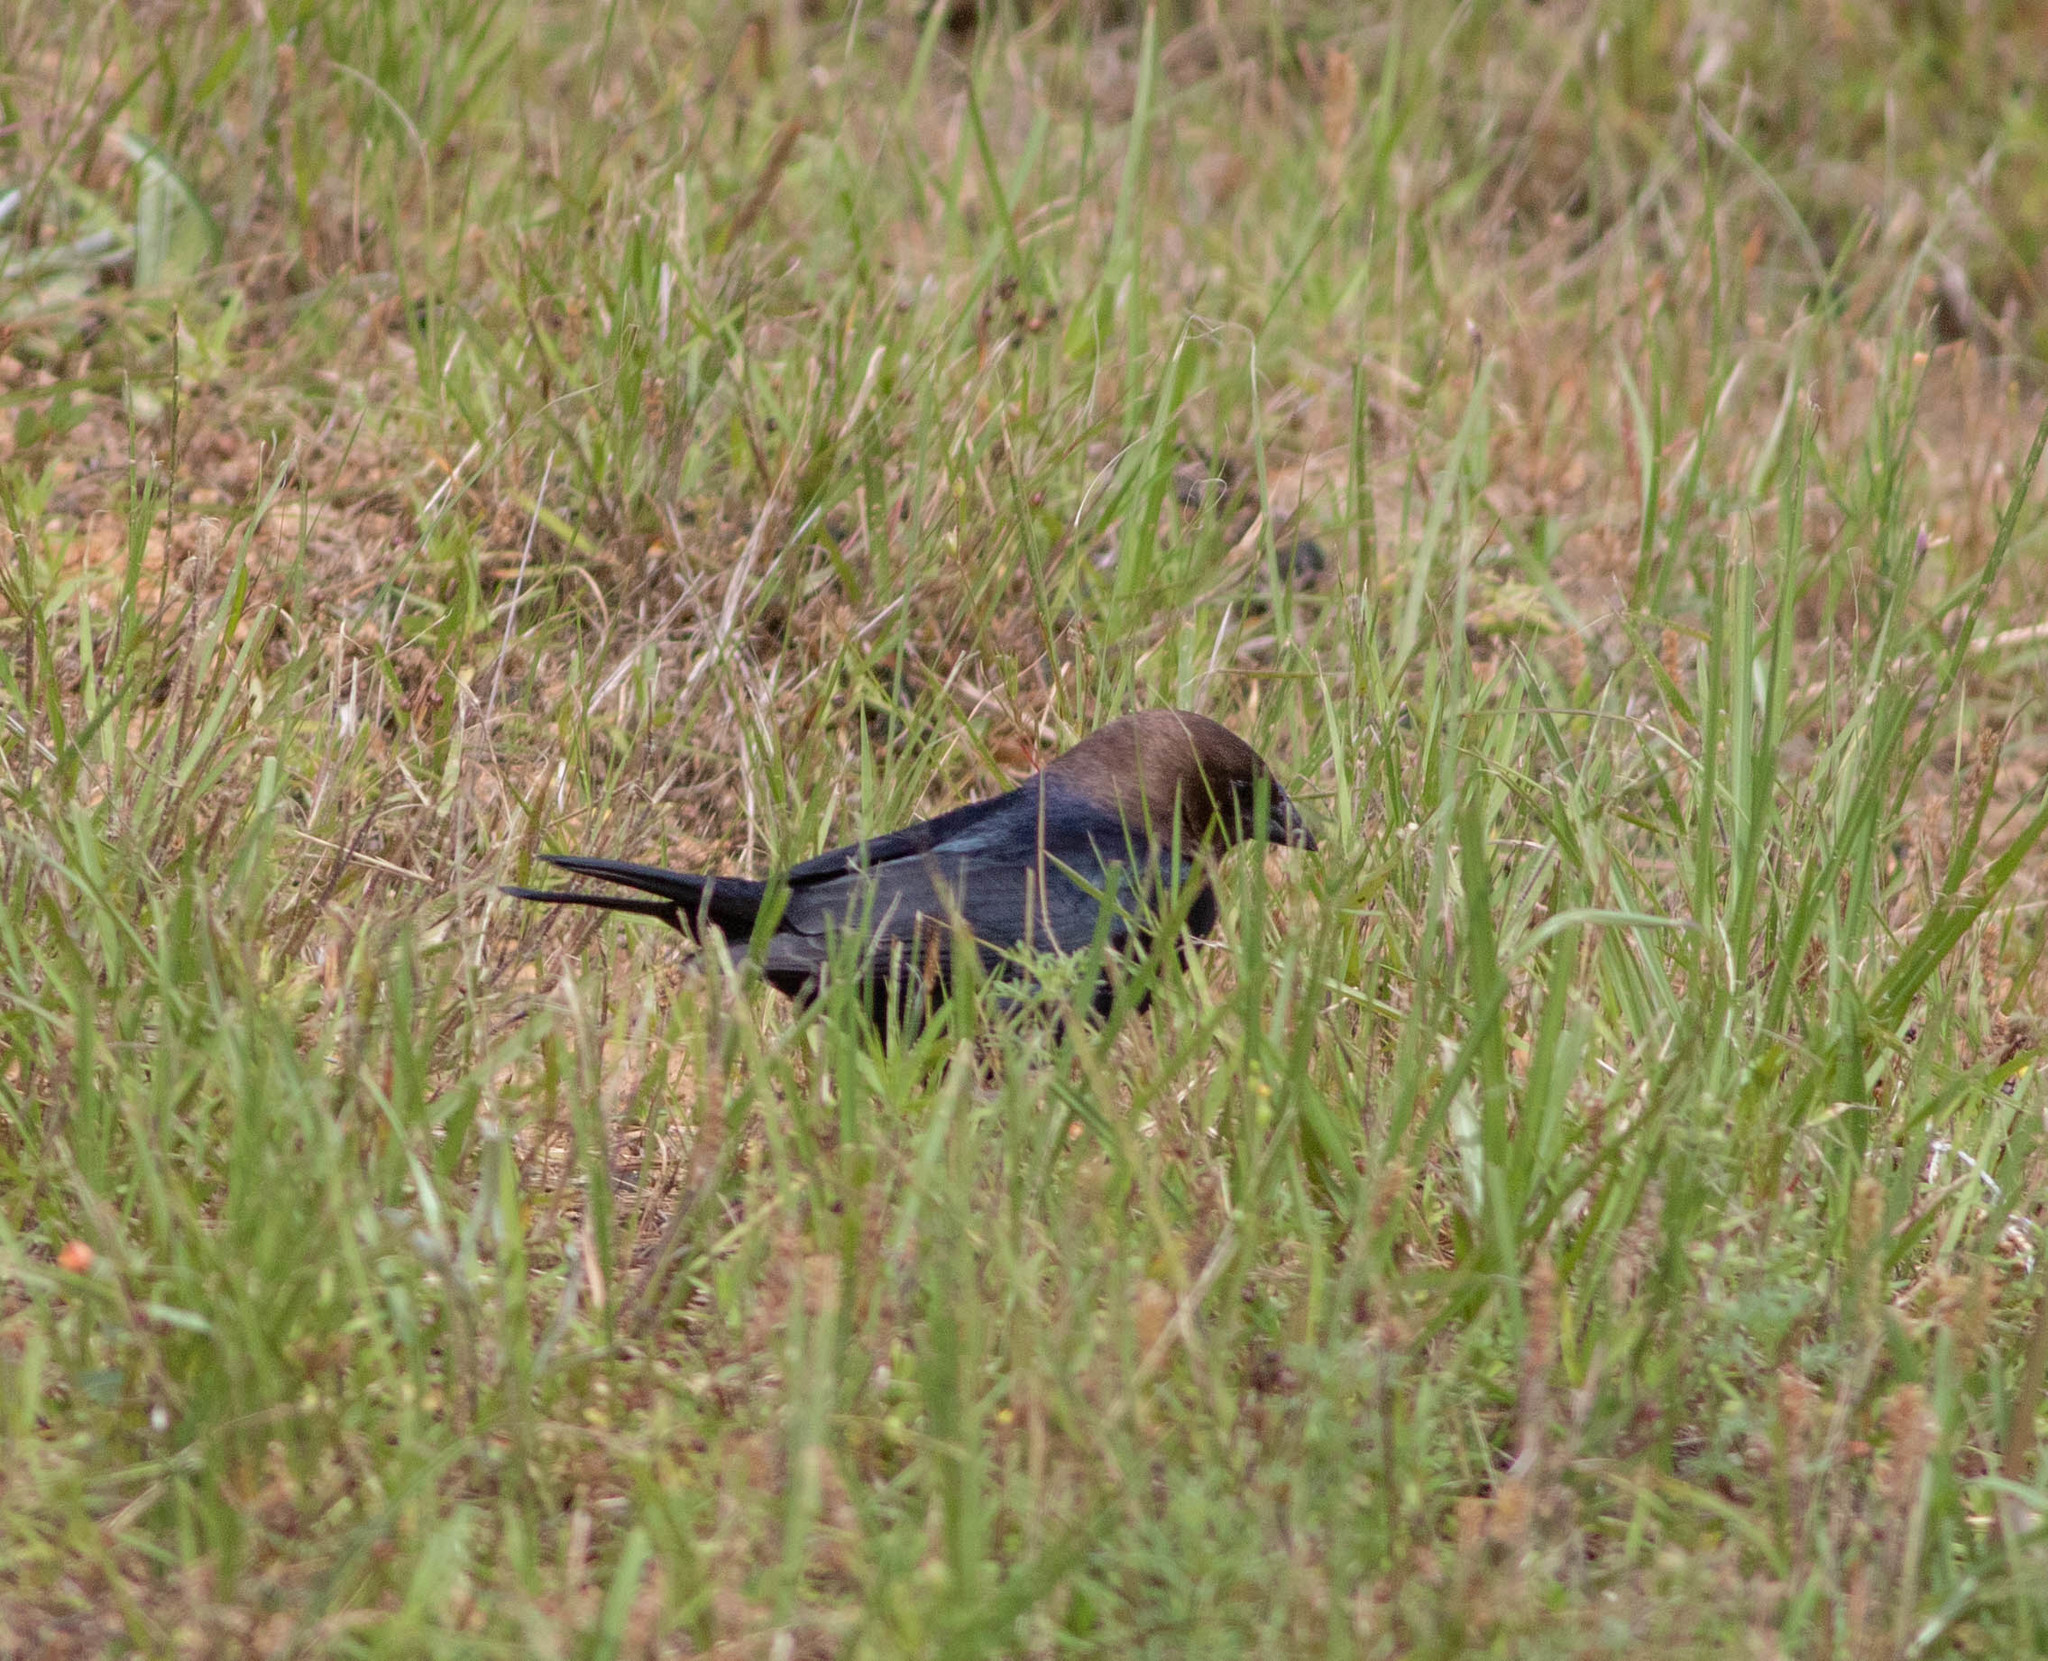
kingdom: Animalia
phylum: Chordata
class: Aves
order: Passeriformes
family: Icteridae
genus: Molothrus
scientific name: Molothrus ater
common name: Brown-headed cowbird
